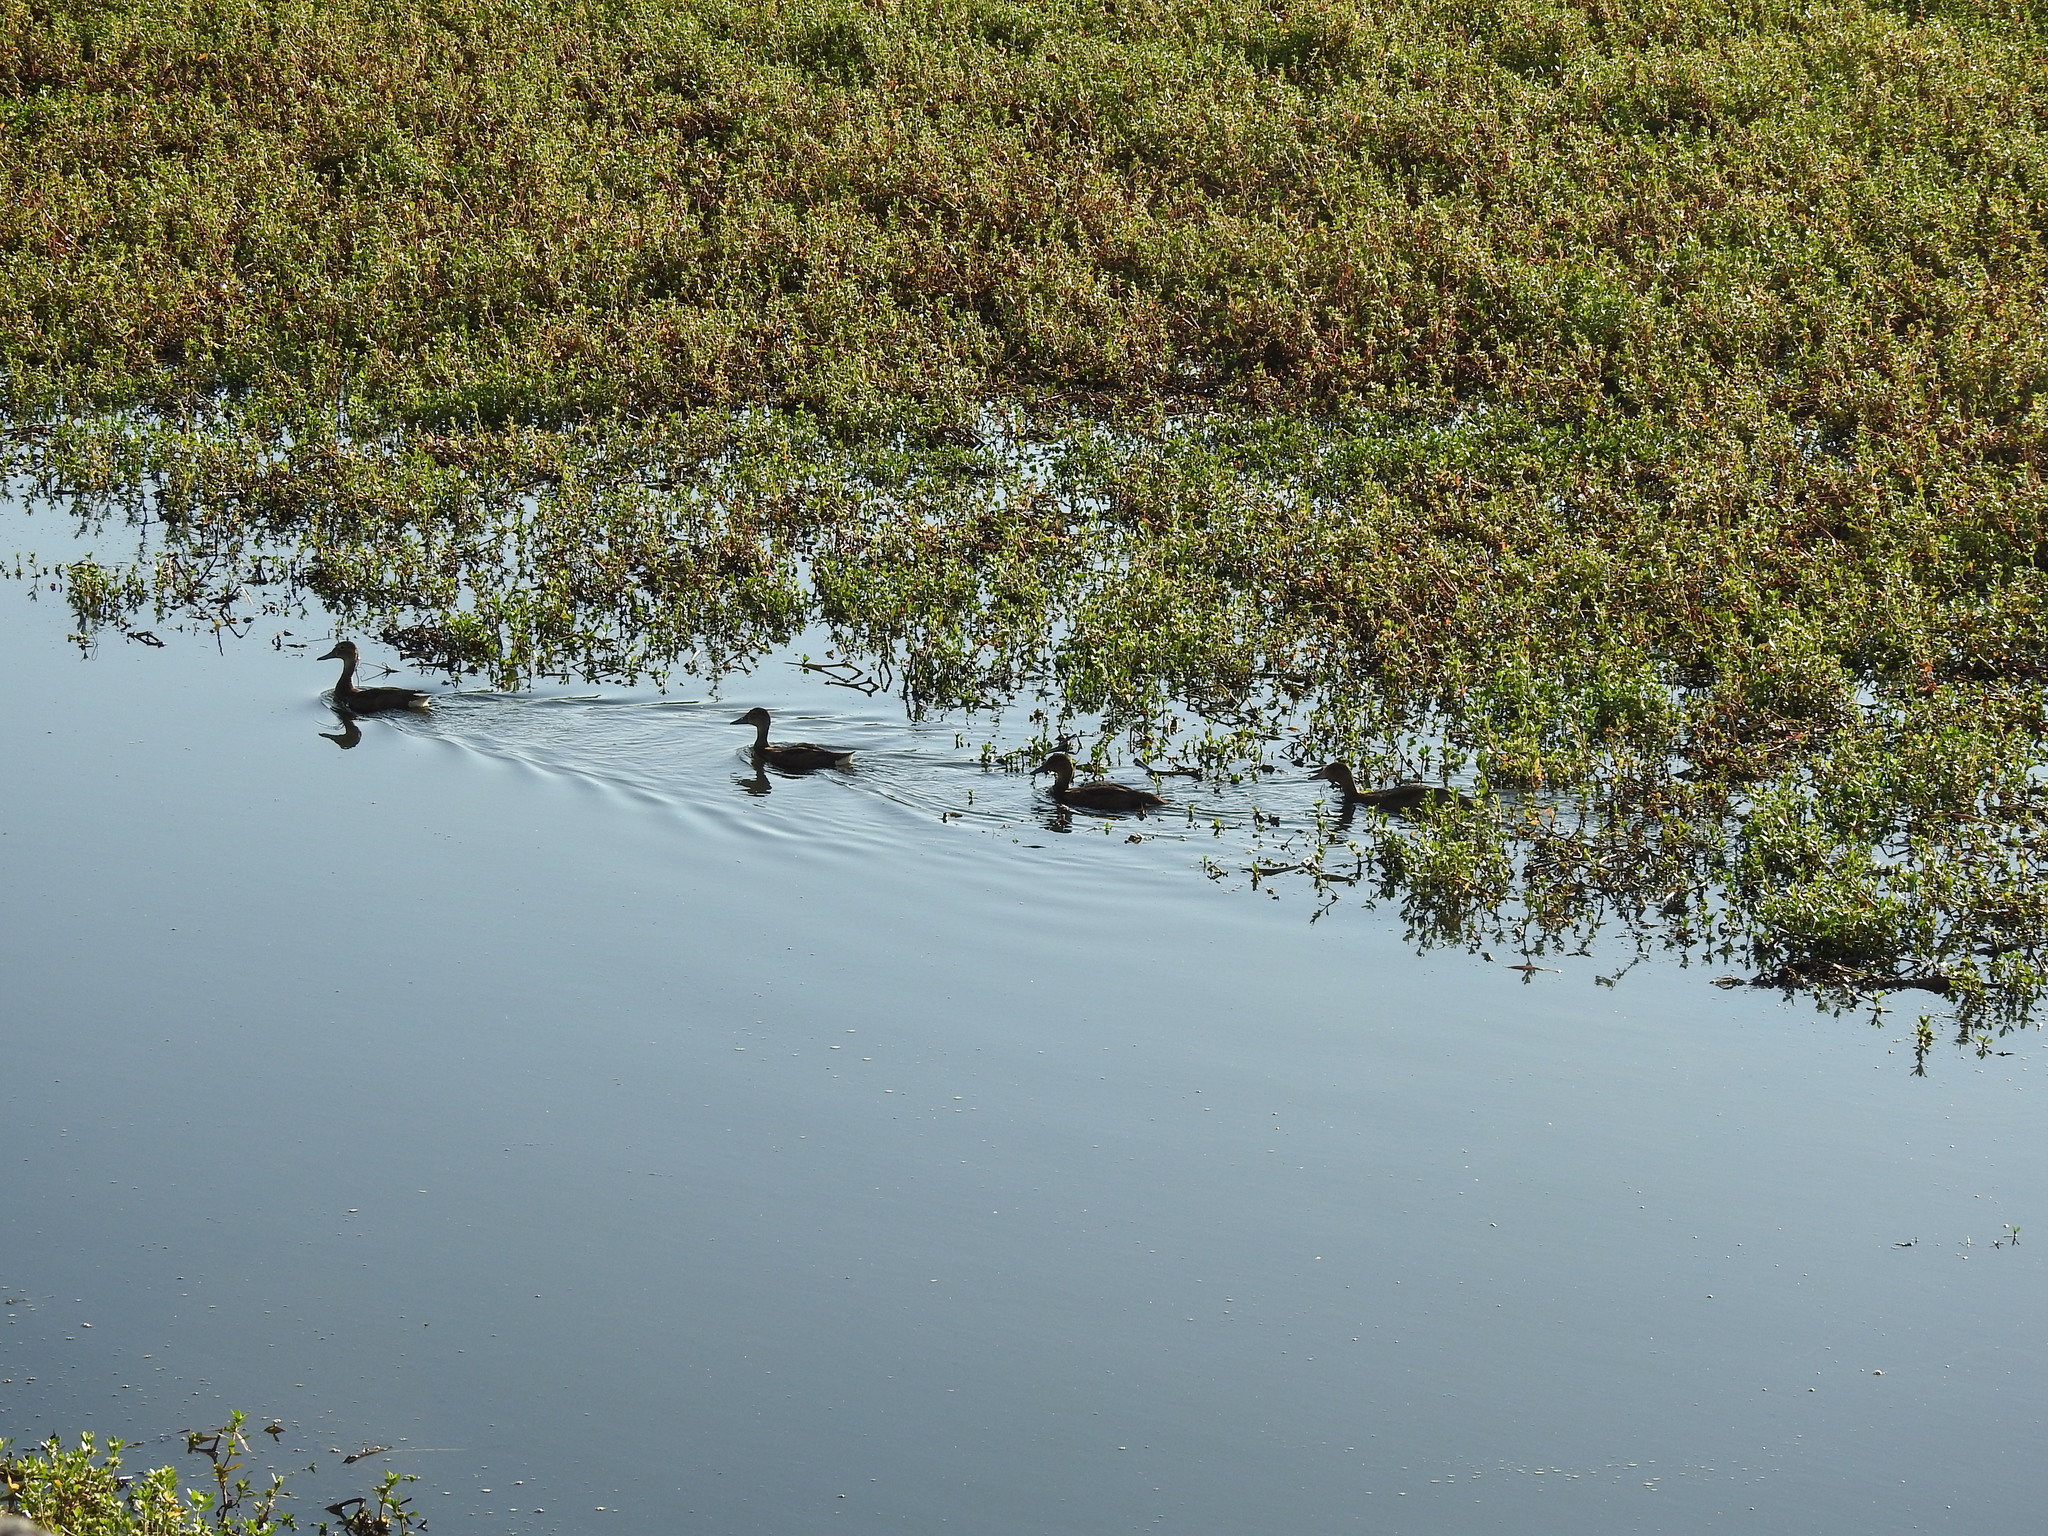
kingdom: Animalia
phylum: Chordata
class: Aves
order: Anseriformes
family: Anatidae
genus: Netta
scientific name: Netta peposaca
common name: Rosy-billed pochard
